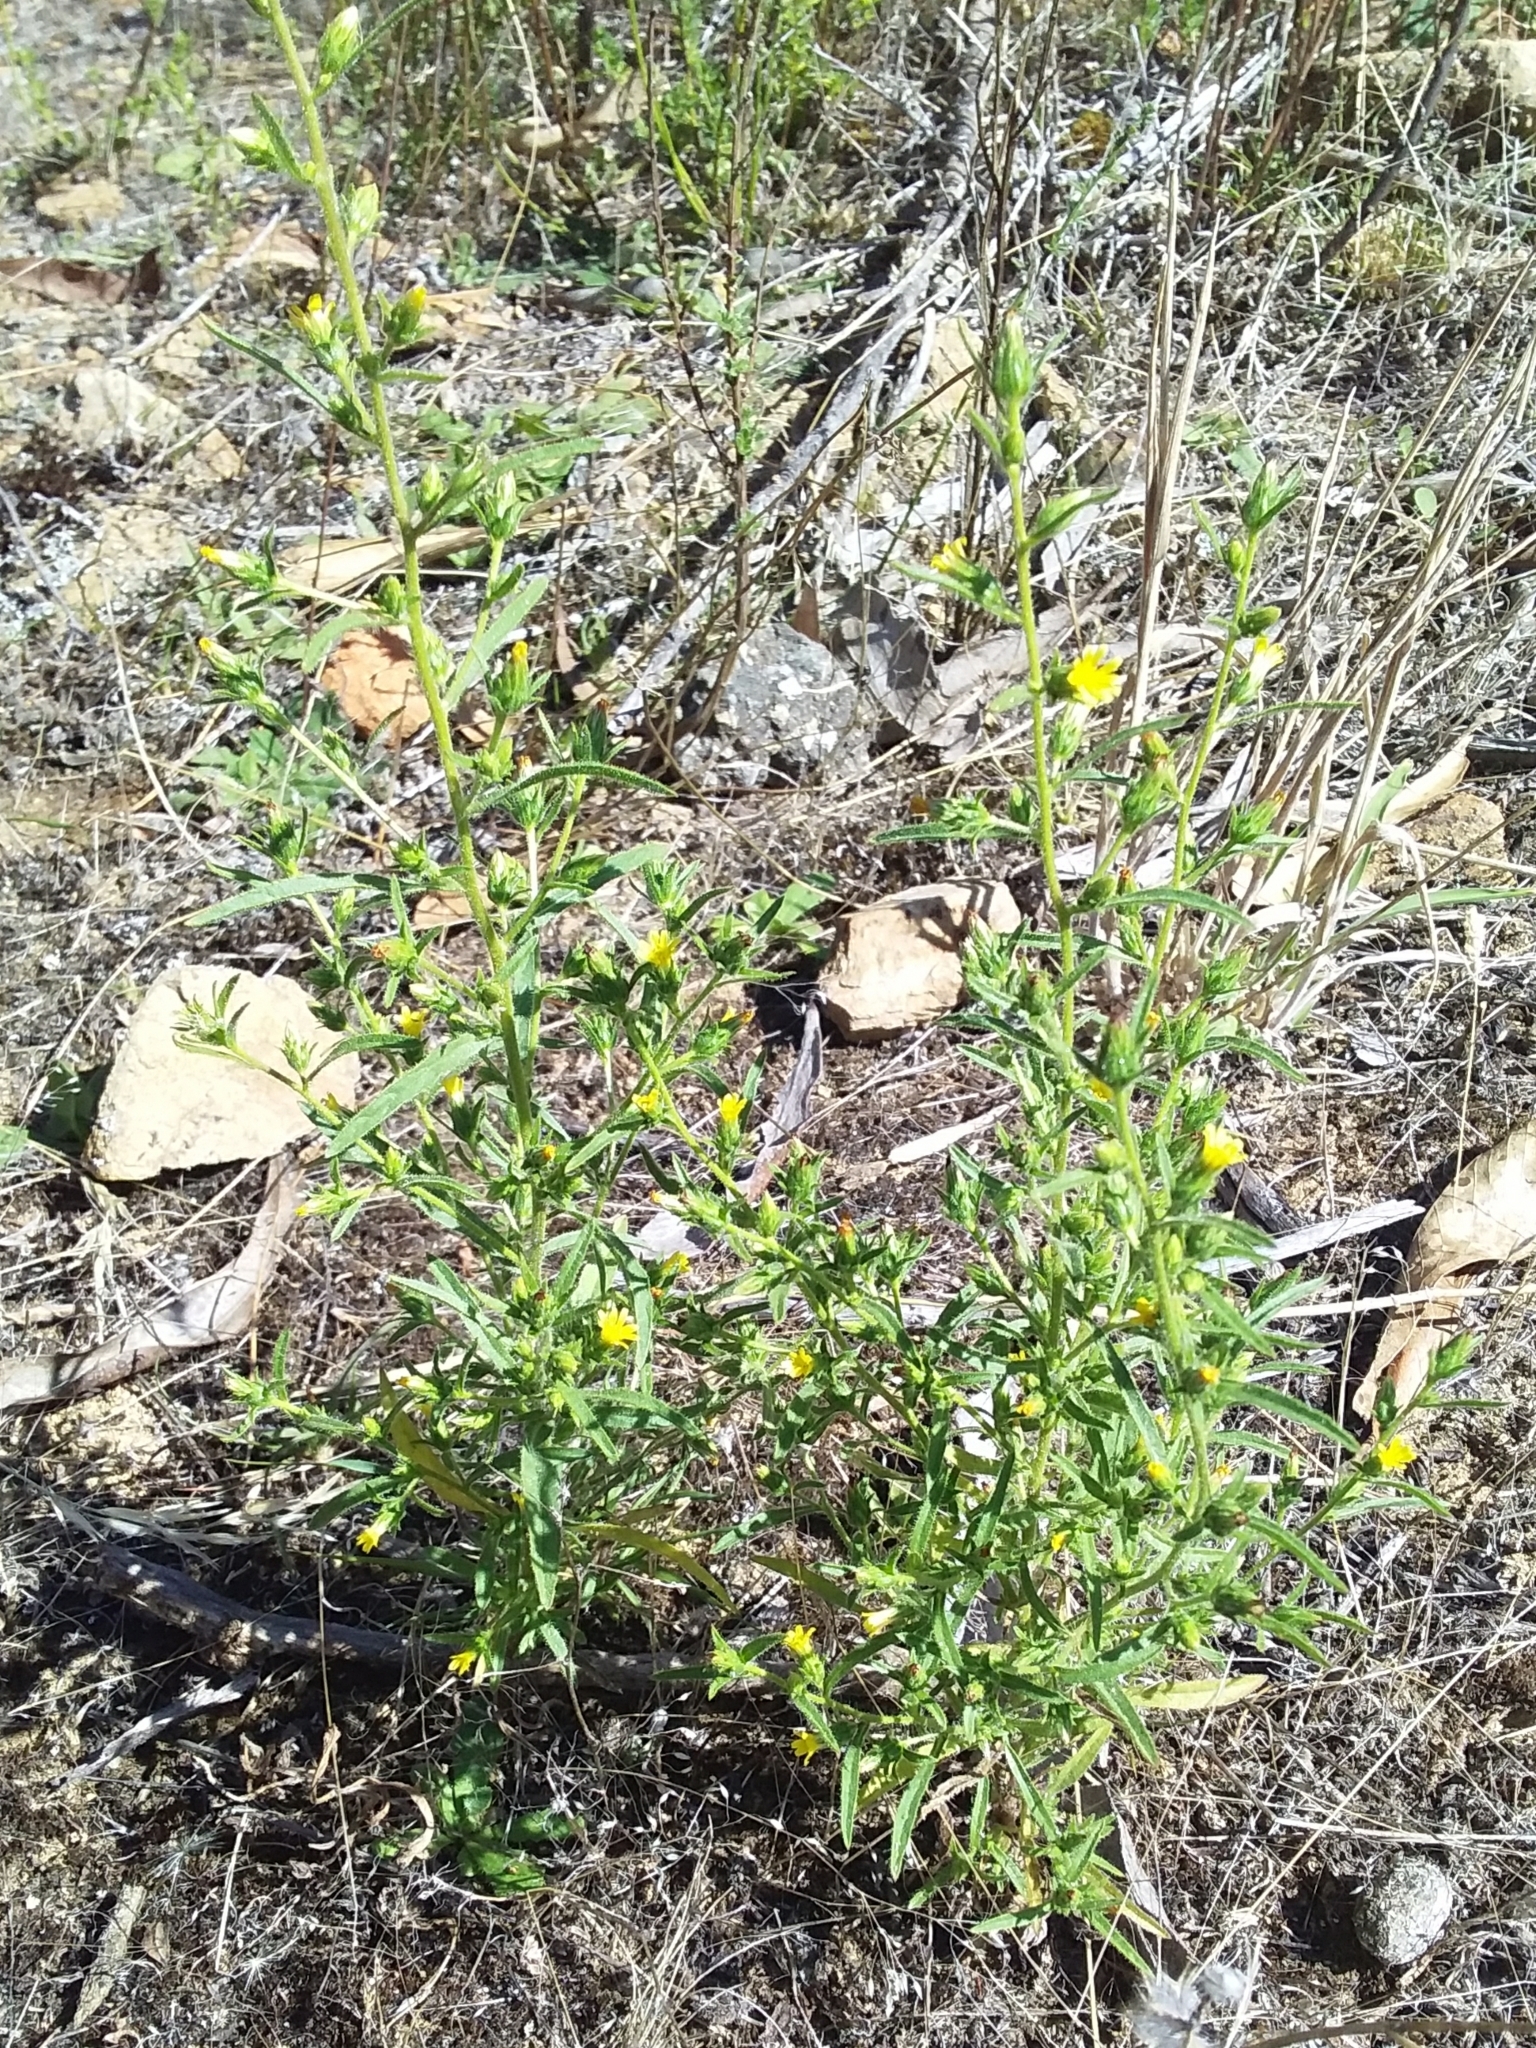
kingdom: Plantae
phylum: Tracheophyta
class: Magnoliopsida
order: Asterales
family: Asteraceae
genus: Dittrichia
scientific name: Dittrichia graveolens
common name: Stinking fleabane
